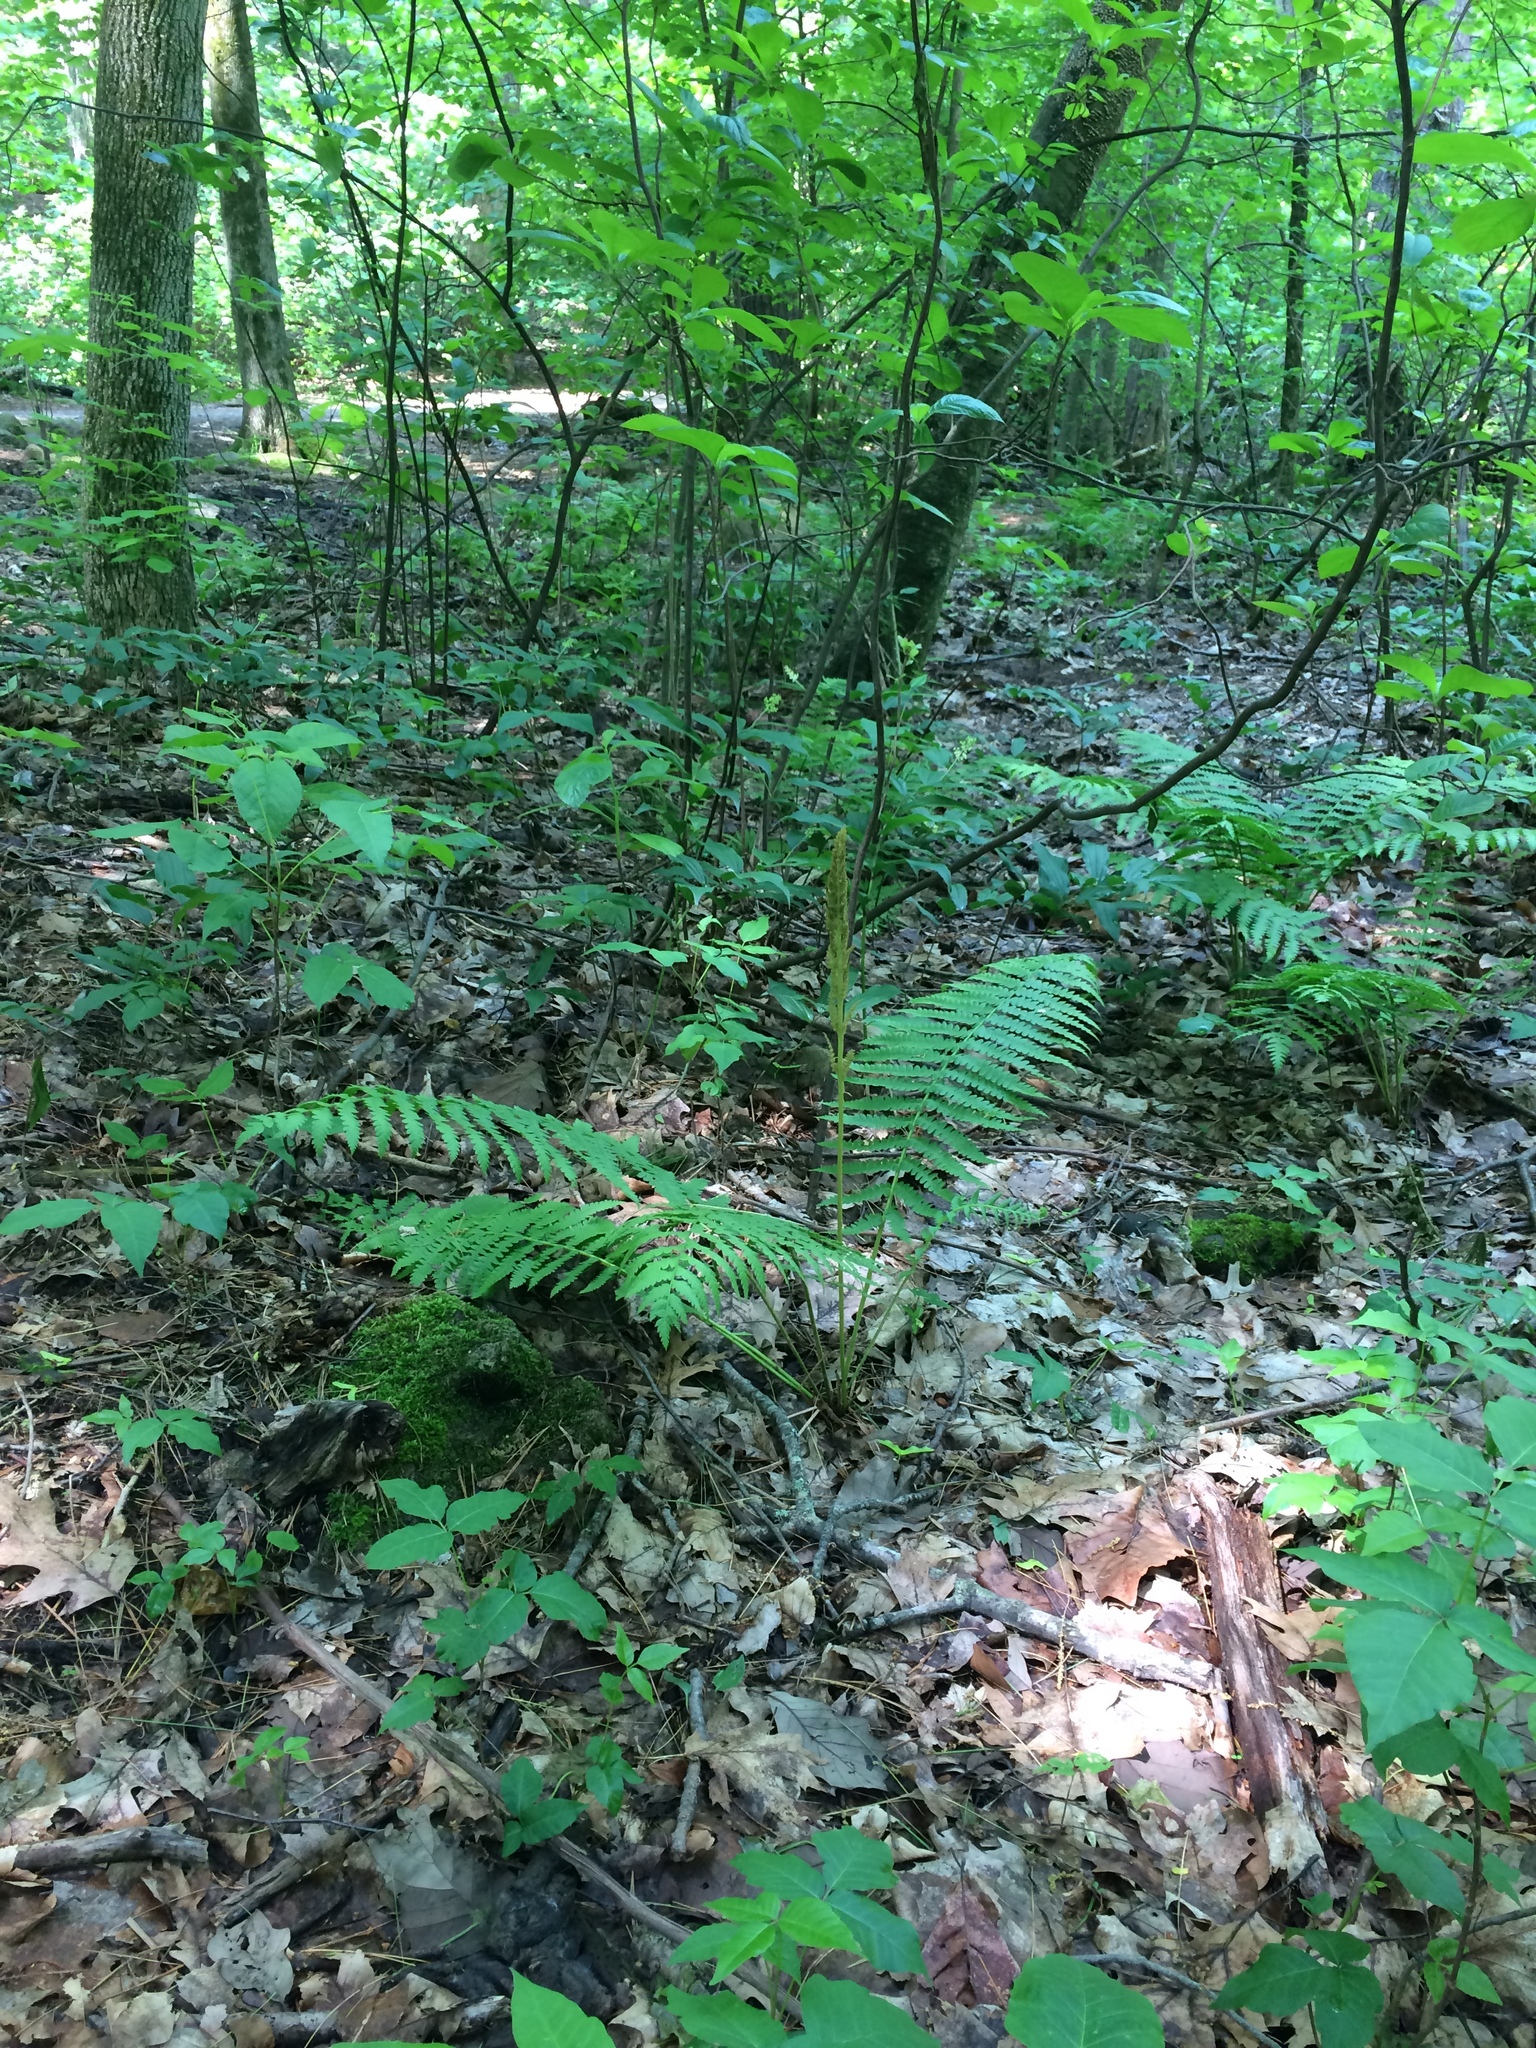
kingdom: Plantae
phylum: Tracheophyta
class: Polypodiopsida
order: Osmundales
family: Osmundaceae
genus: Osmundastrum
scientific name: Osmundastrum cinnamomeum
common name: Cinnamon fern
